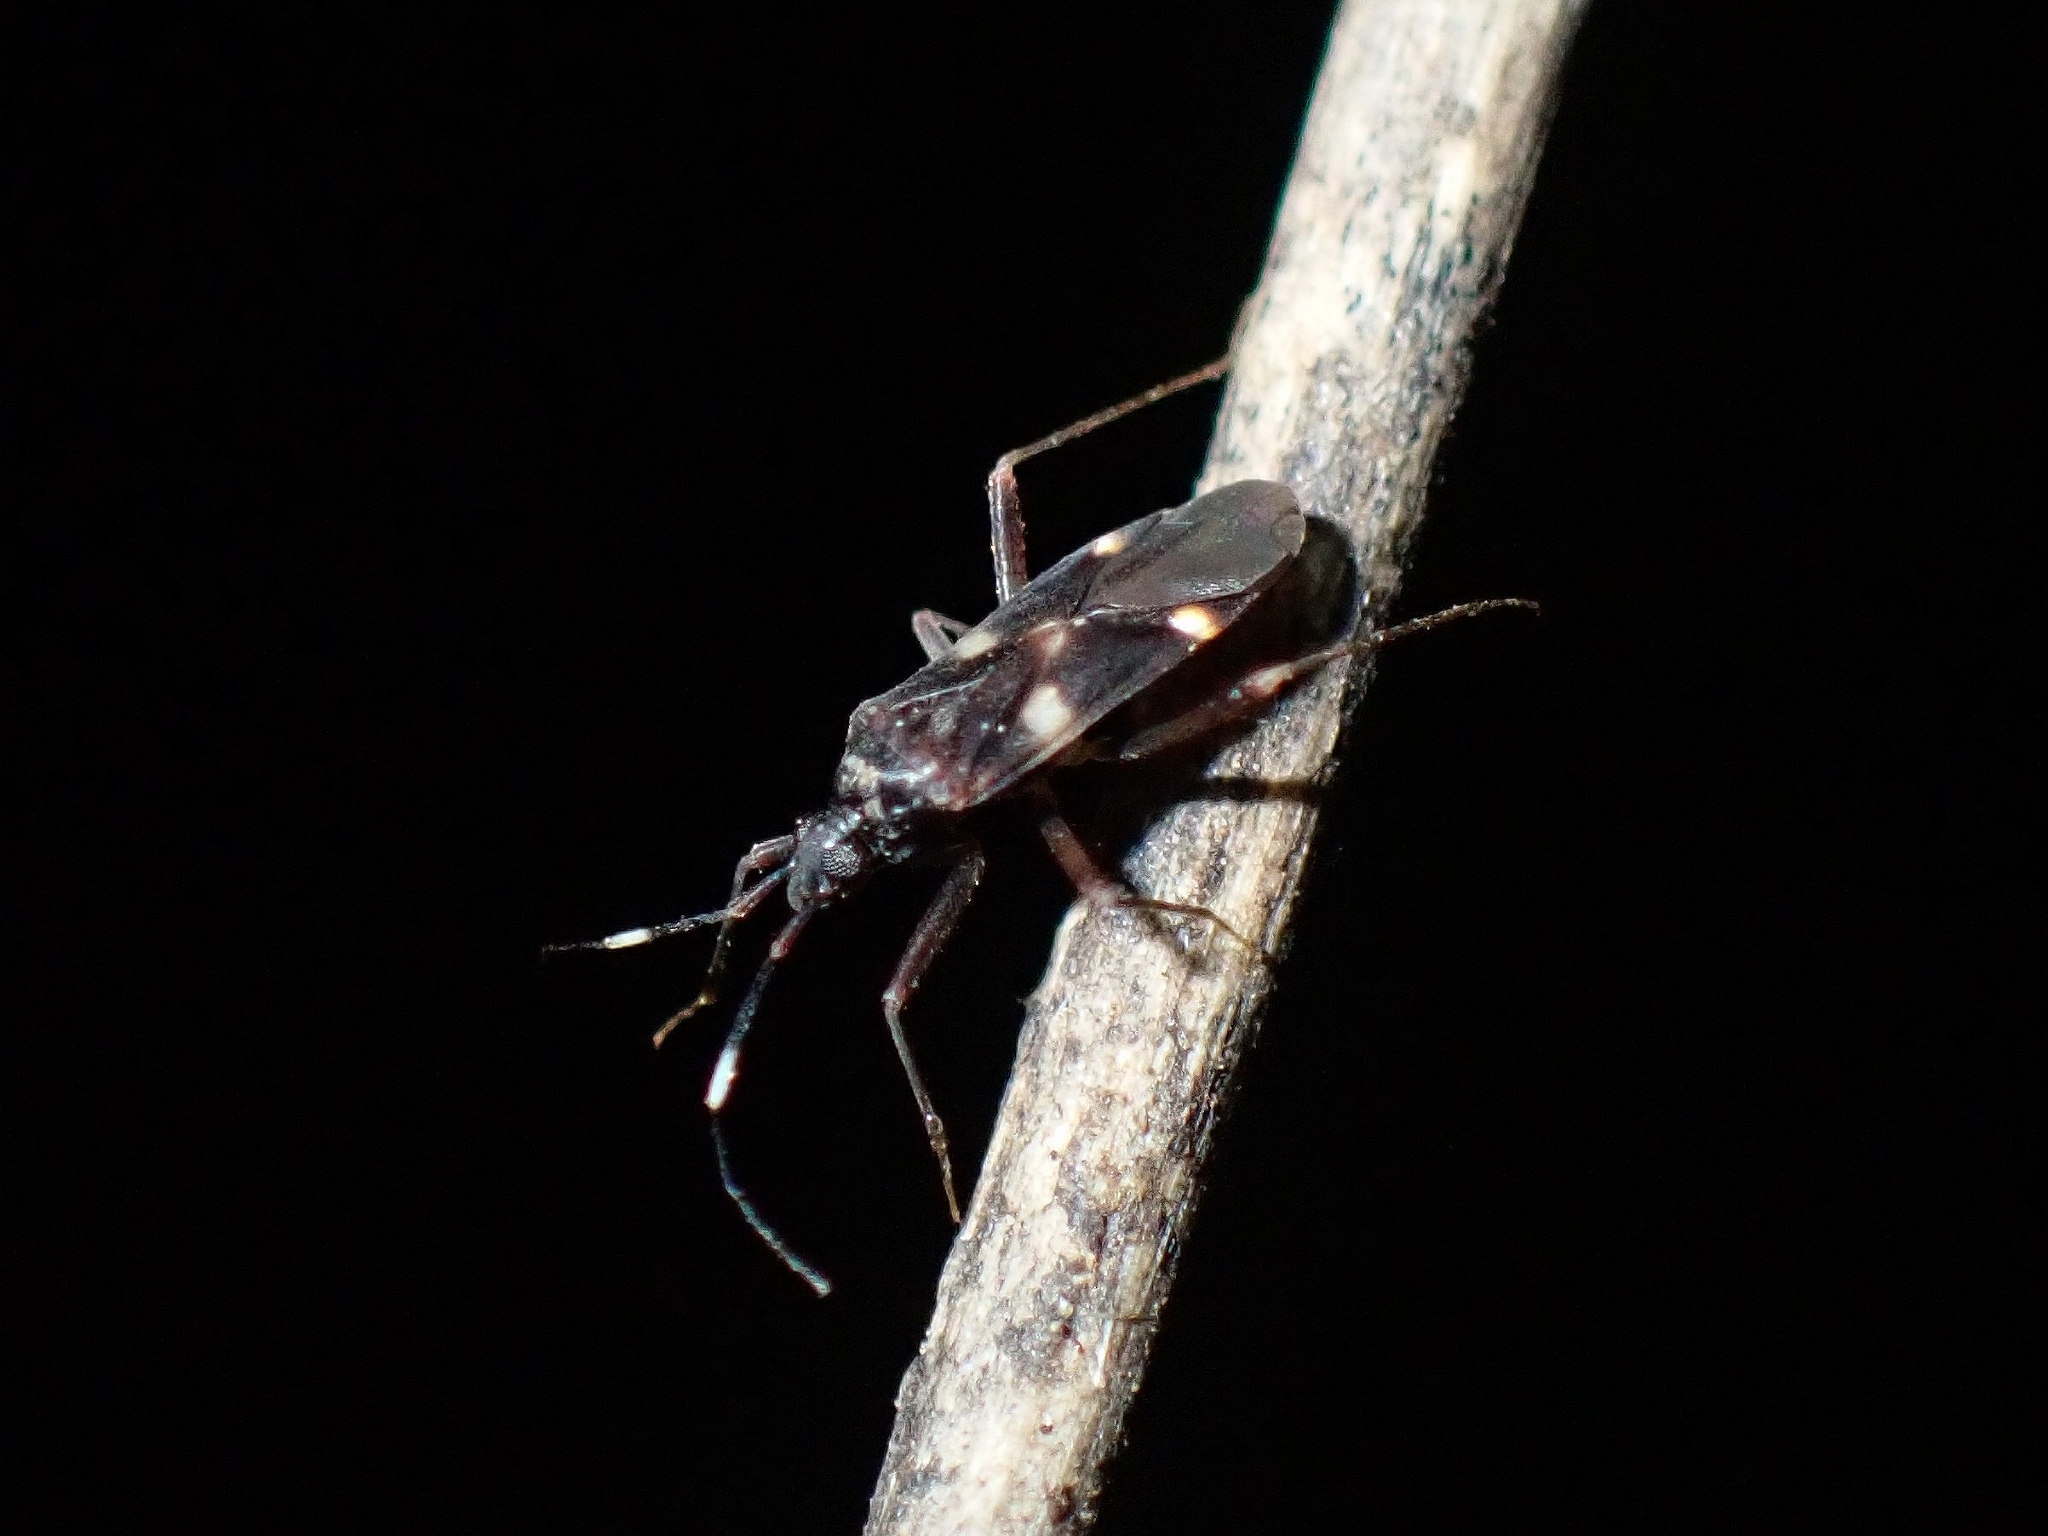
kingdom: Animalia
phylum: Arthropoda
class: Insecta
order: Hemiptera
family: Miridae
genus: Fulvius
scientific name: Fulvius borgesi
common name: Capsid bug
